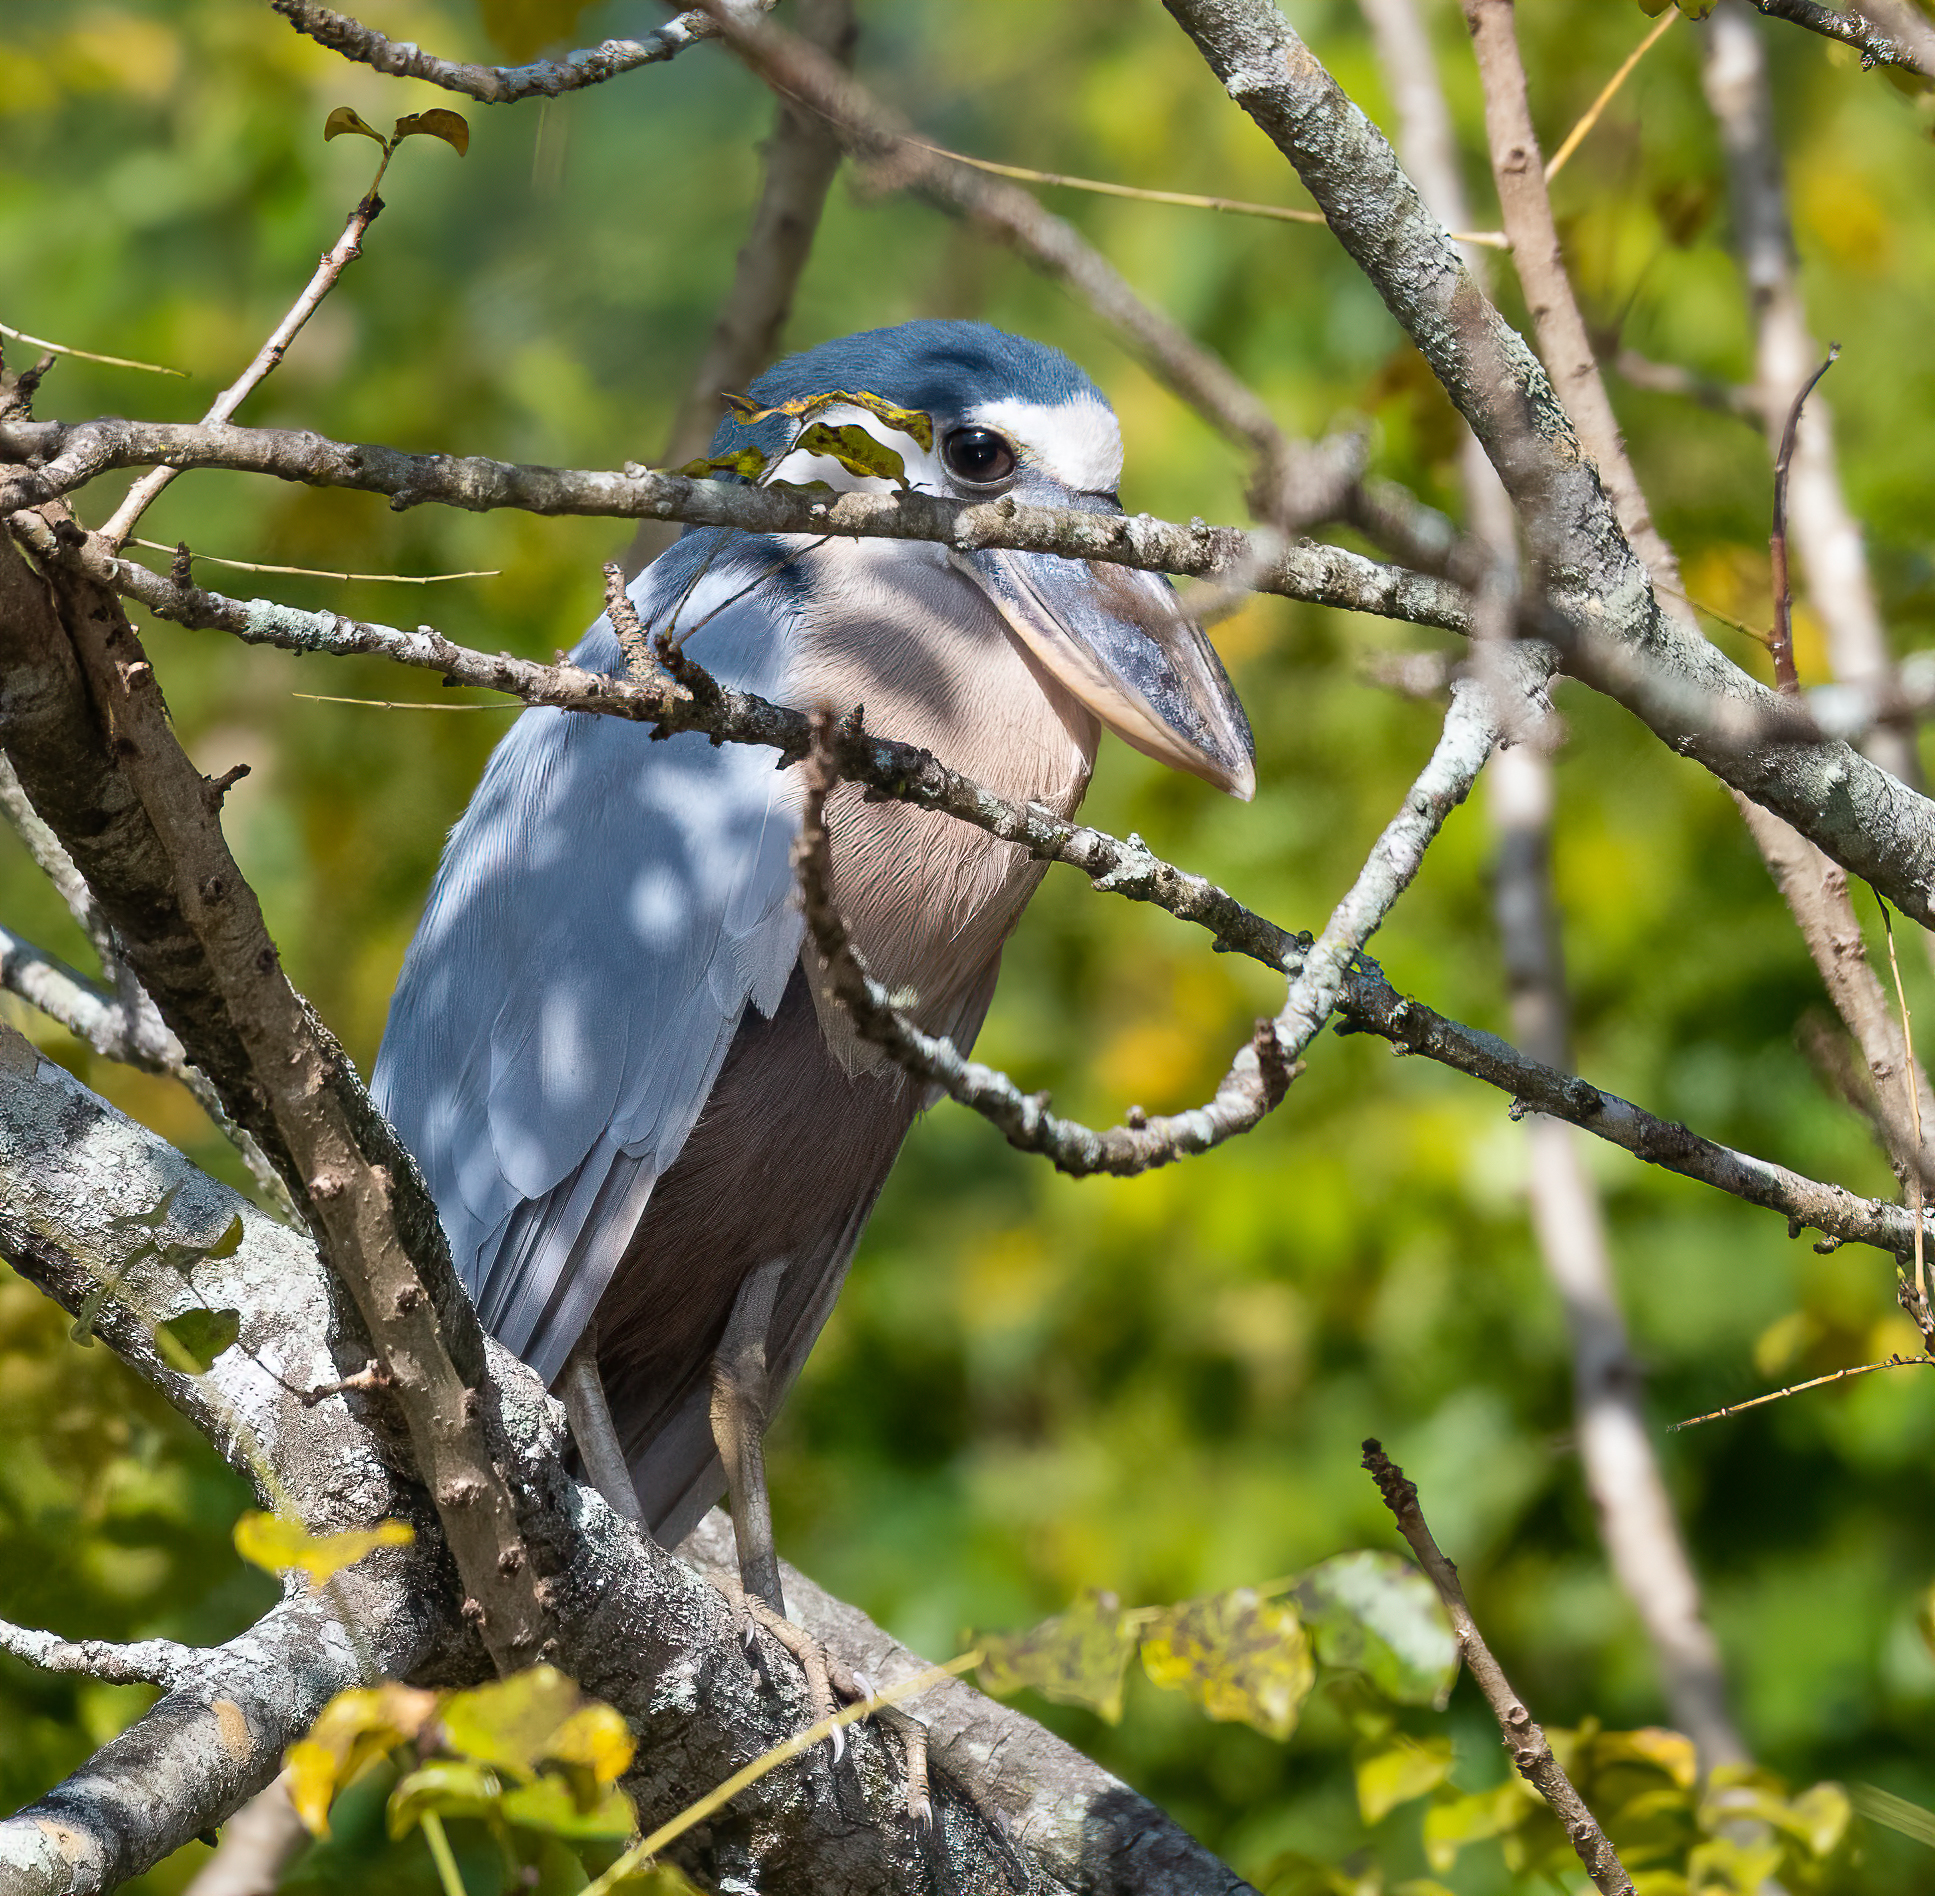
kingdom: Animalia
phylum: Chordata
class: Aves
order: Pelecaniformes
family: Ardeidae
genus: Cochlearius
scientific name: Cochlearius cochlearius
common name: Boat-billed heron
